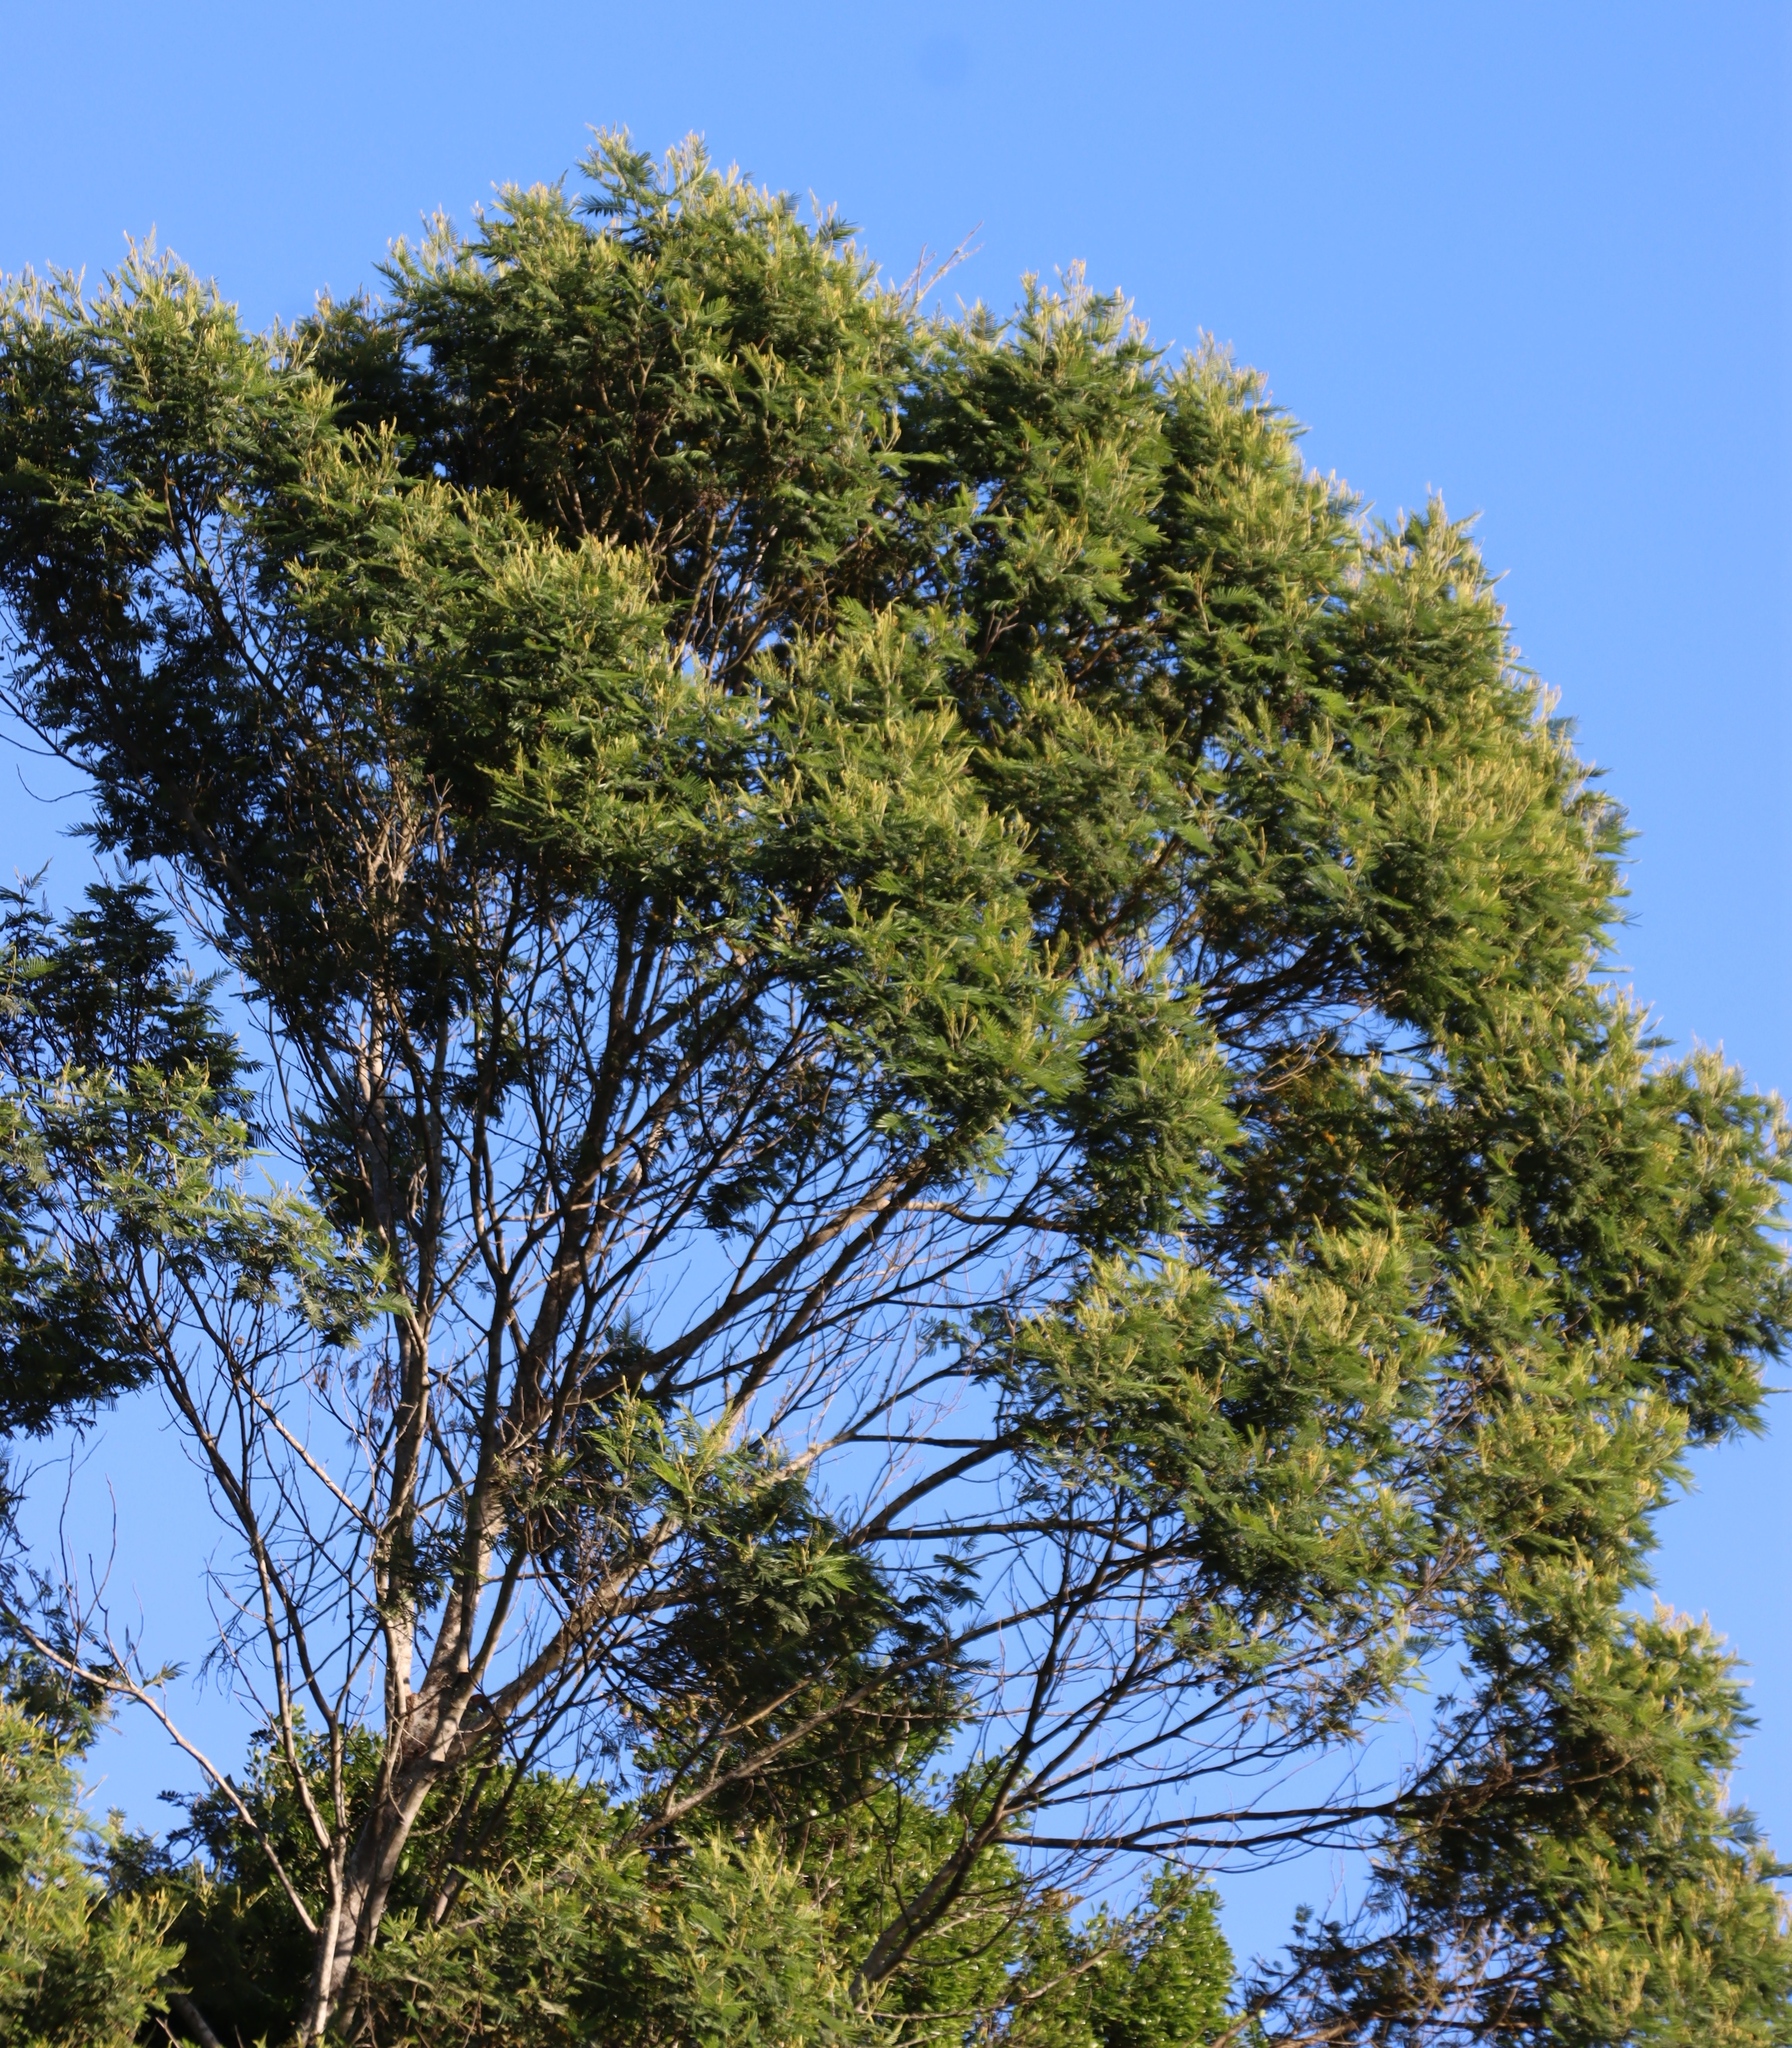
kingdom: Plantae
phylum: Tracheophyta
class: Magnoliopsida
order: Fabales
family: Fabaceae
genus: Acacia
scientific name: Acacia mearnsii
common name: Black wattle
